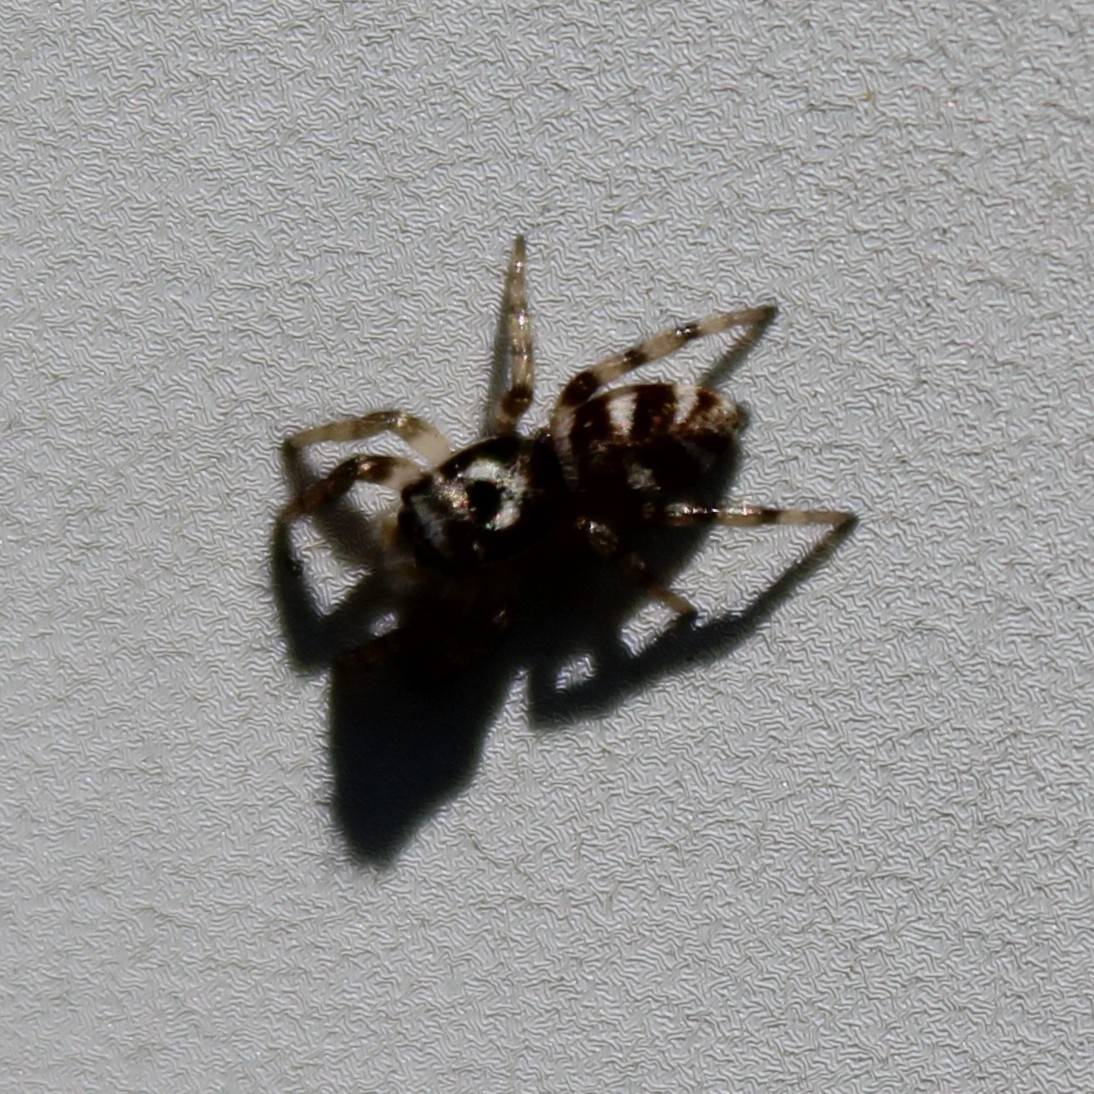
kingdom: Animalia
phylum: Arthropoda
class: Arachnida
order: Araneae
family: Salticidae
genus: Salticus
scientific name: Salticus scenicus
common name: Zebra jumper
